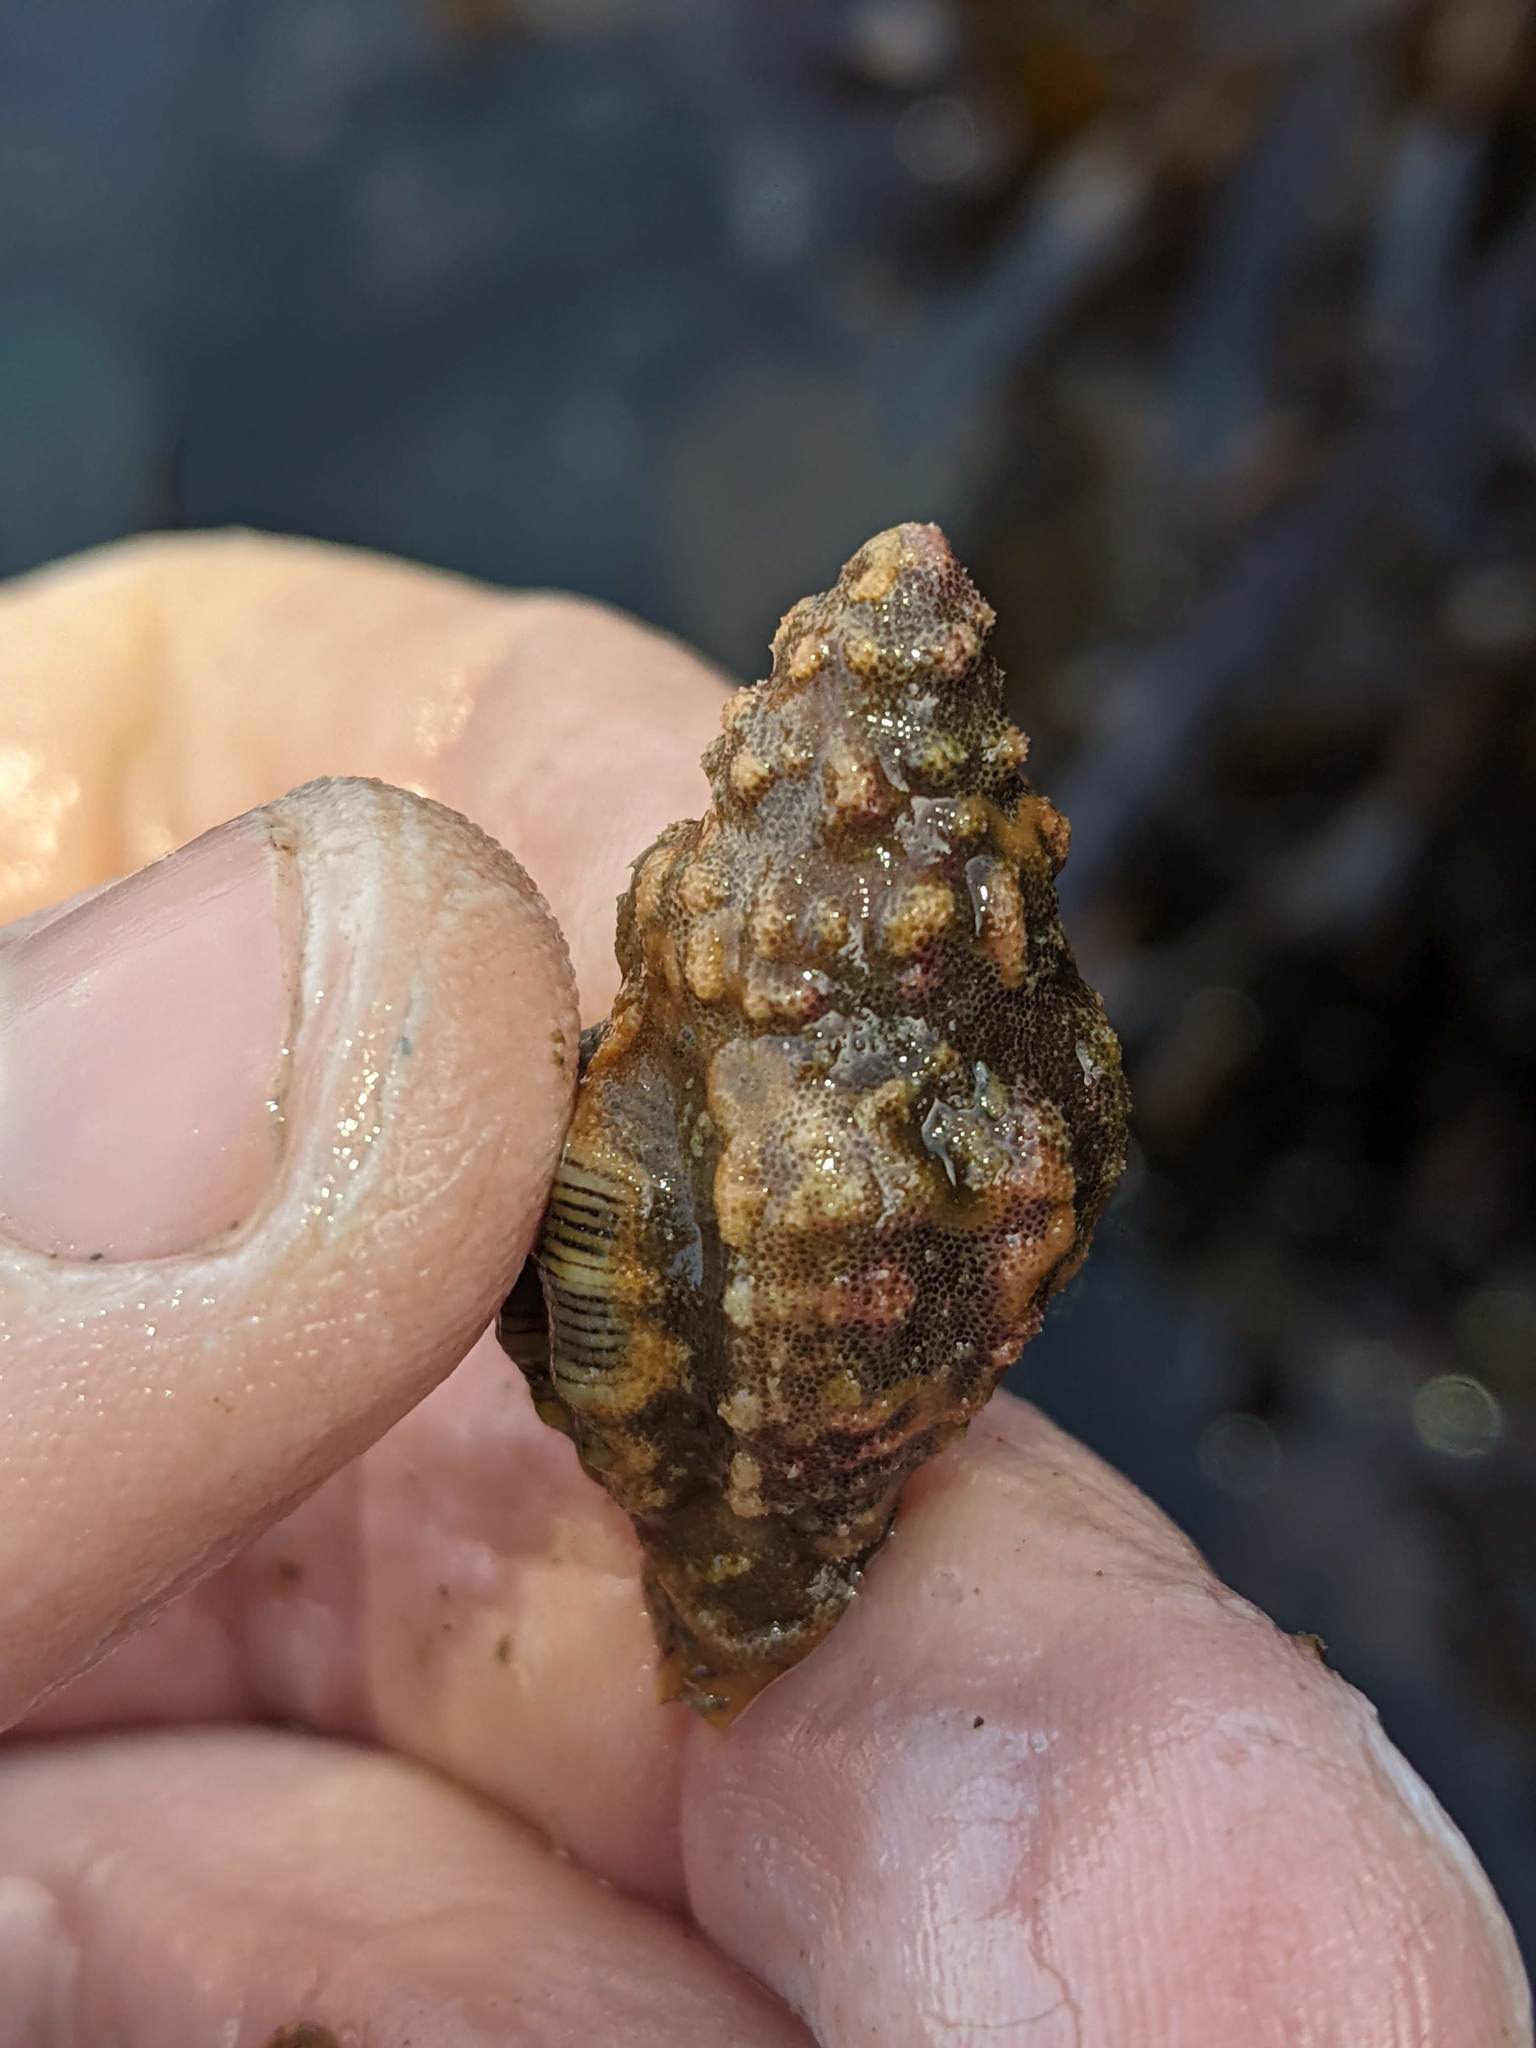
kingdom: Animalia
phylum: Mollusca
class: Gastropoda
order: Neogastropoda
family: Muricidae
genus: Roperia
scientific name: Roperia poulsoni
